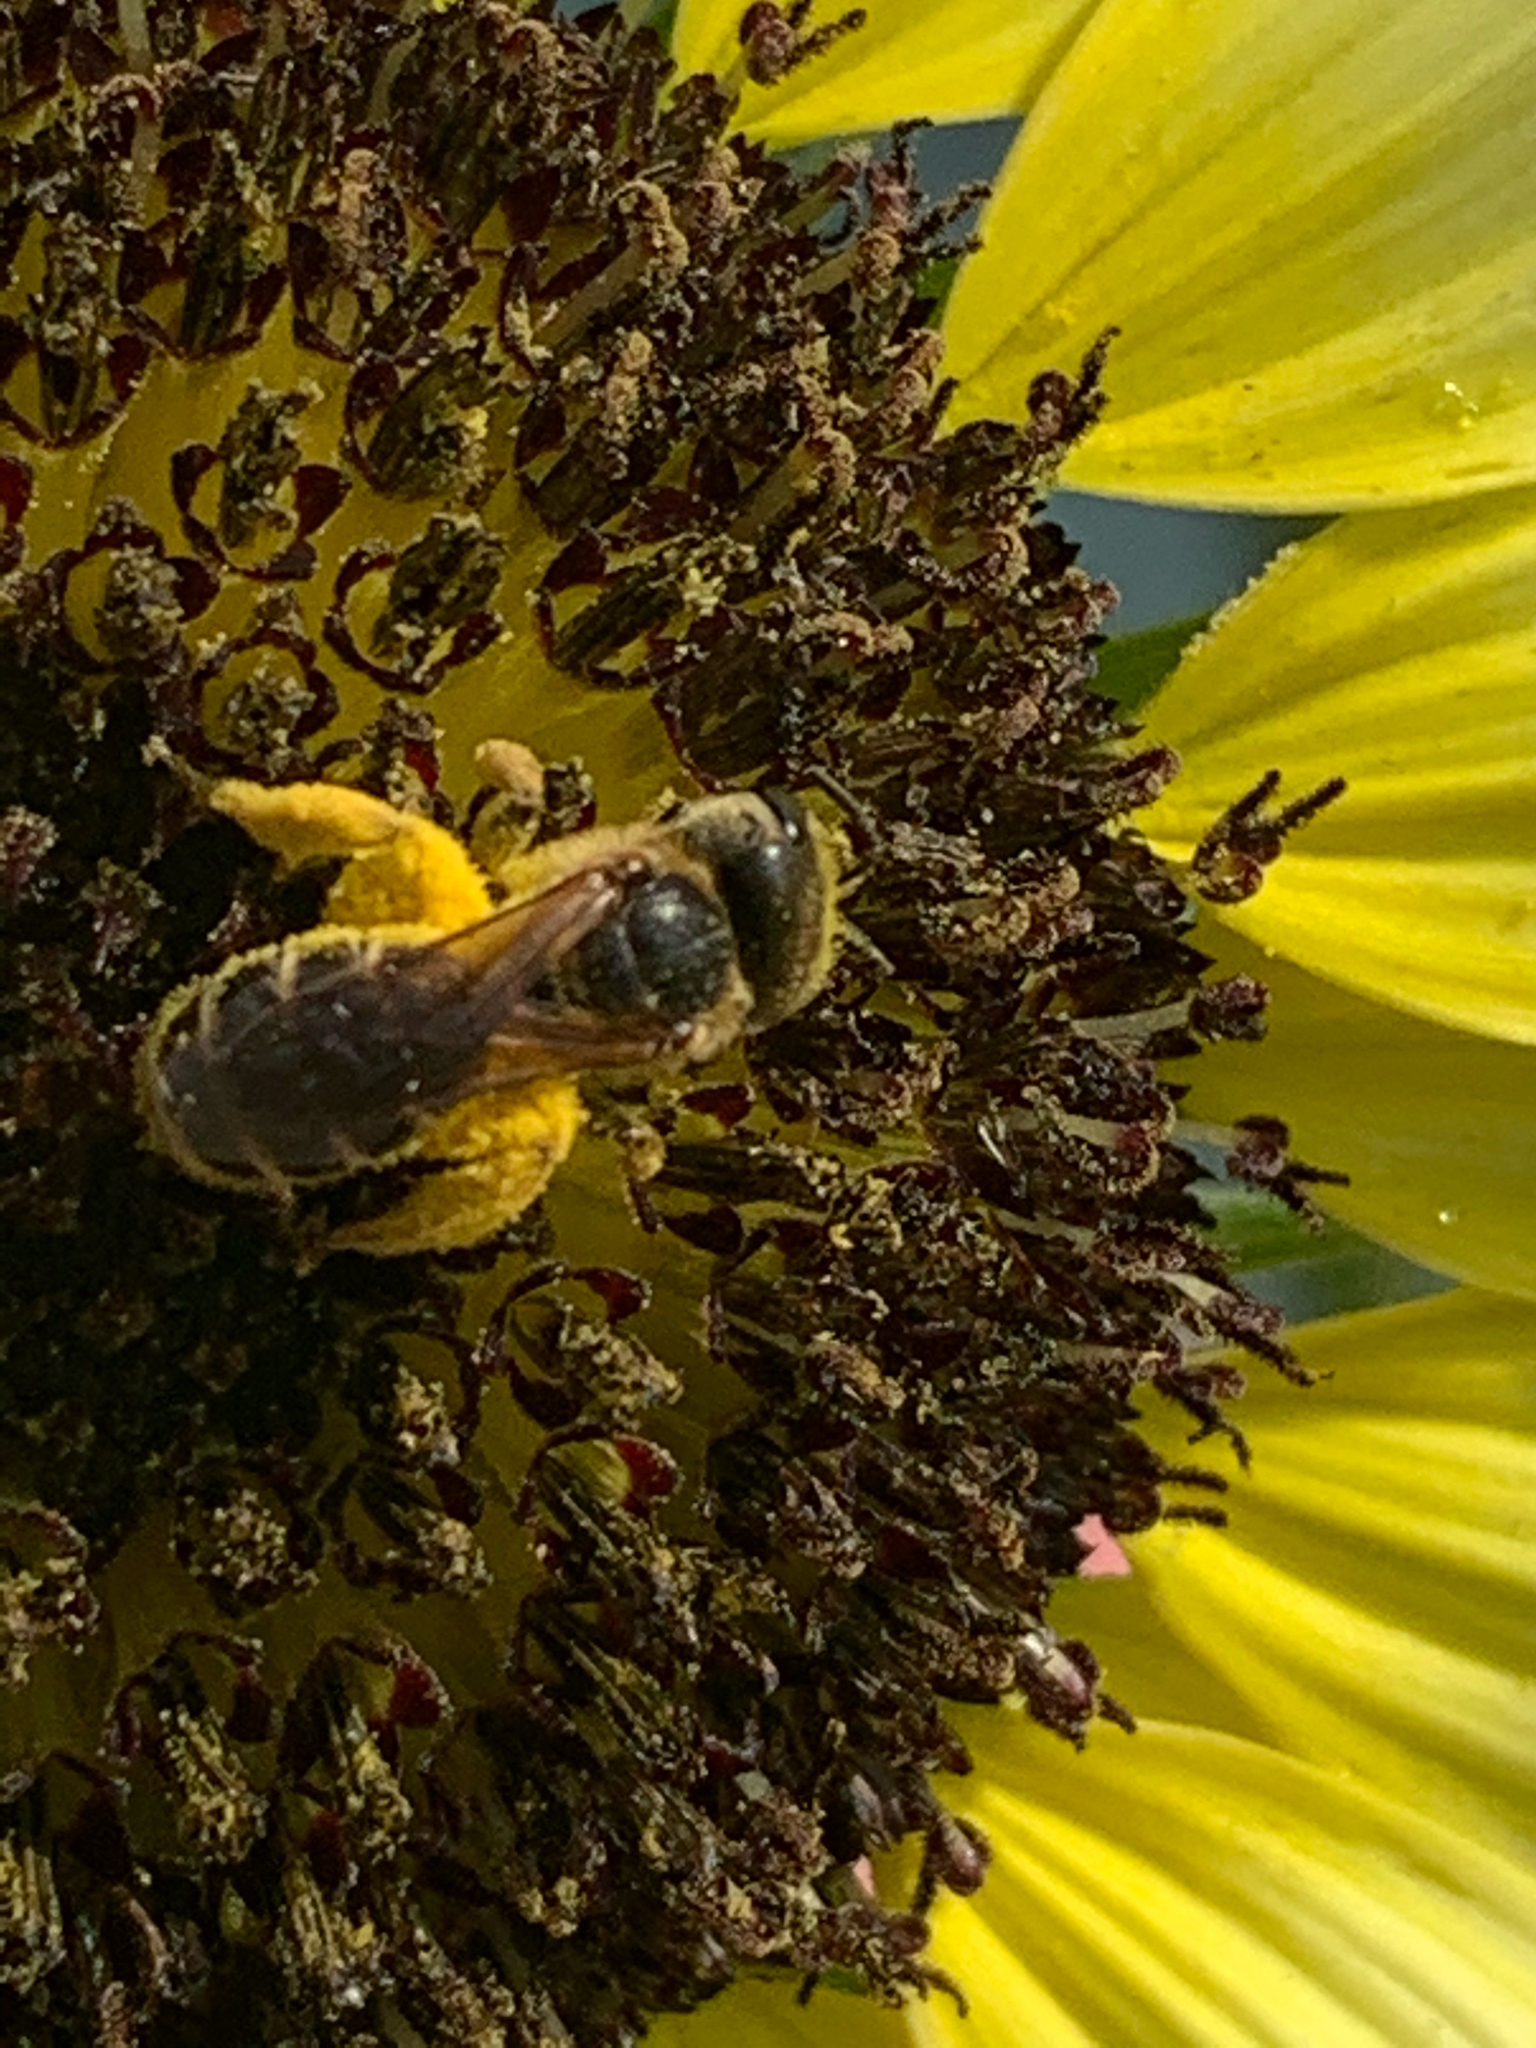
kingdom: Animalia
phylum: Arthropoda
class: Insecta
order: Hymenoptera
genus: Odontalictus
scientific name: Odontalictus
